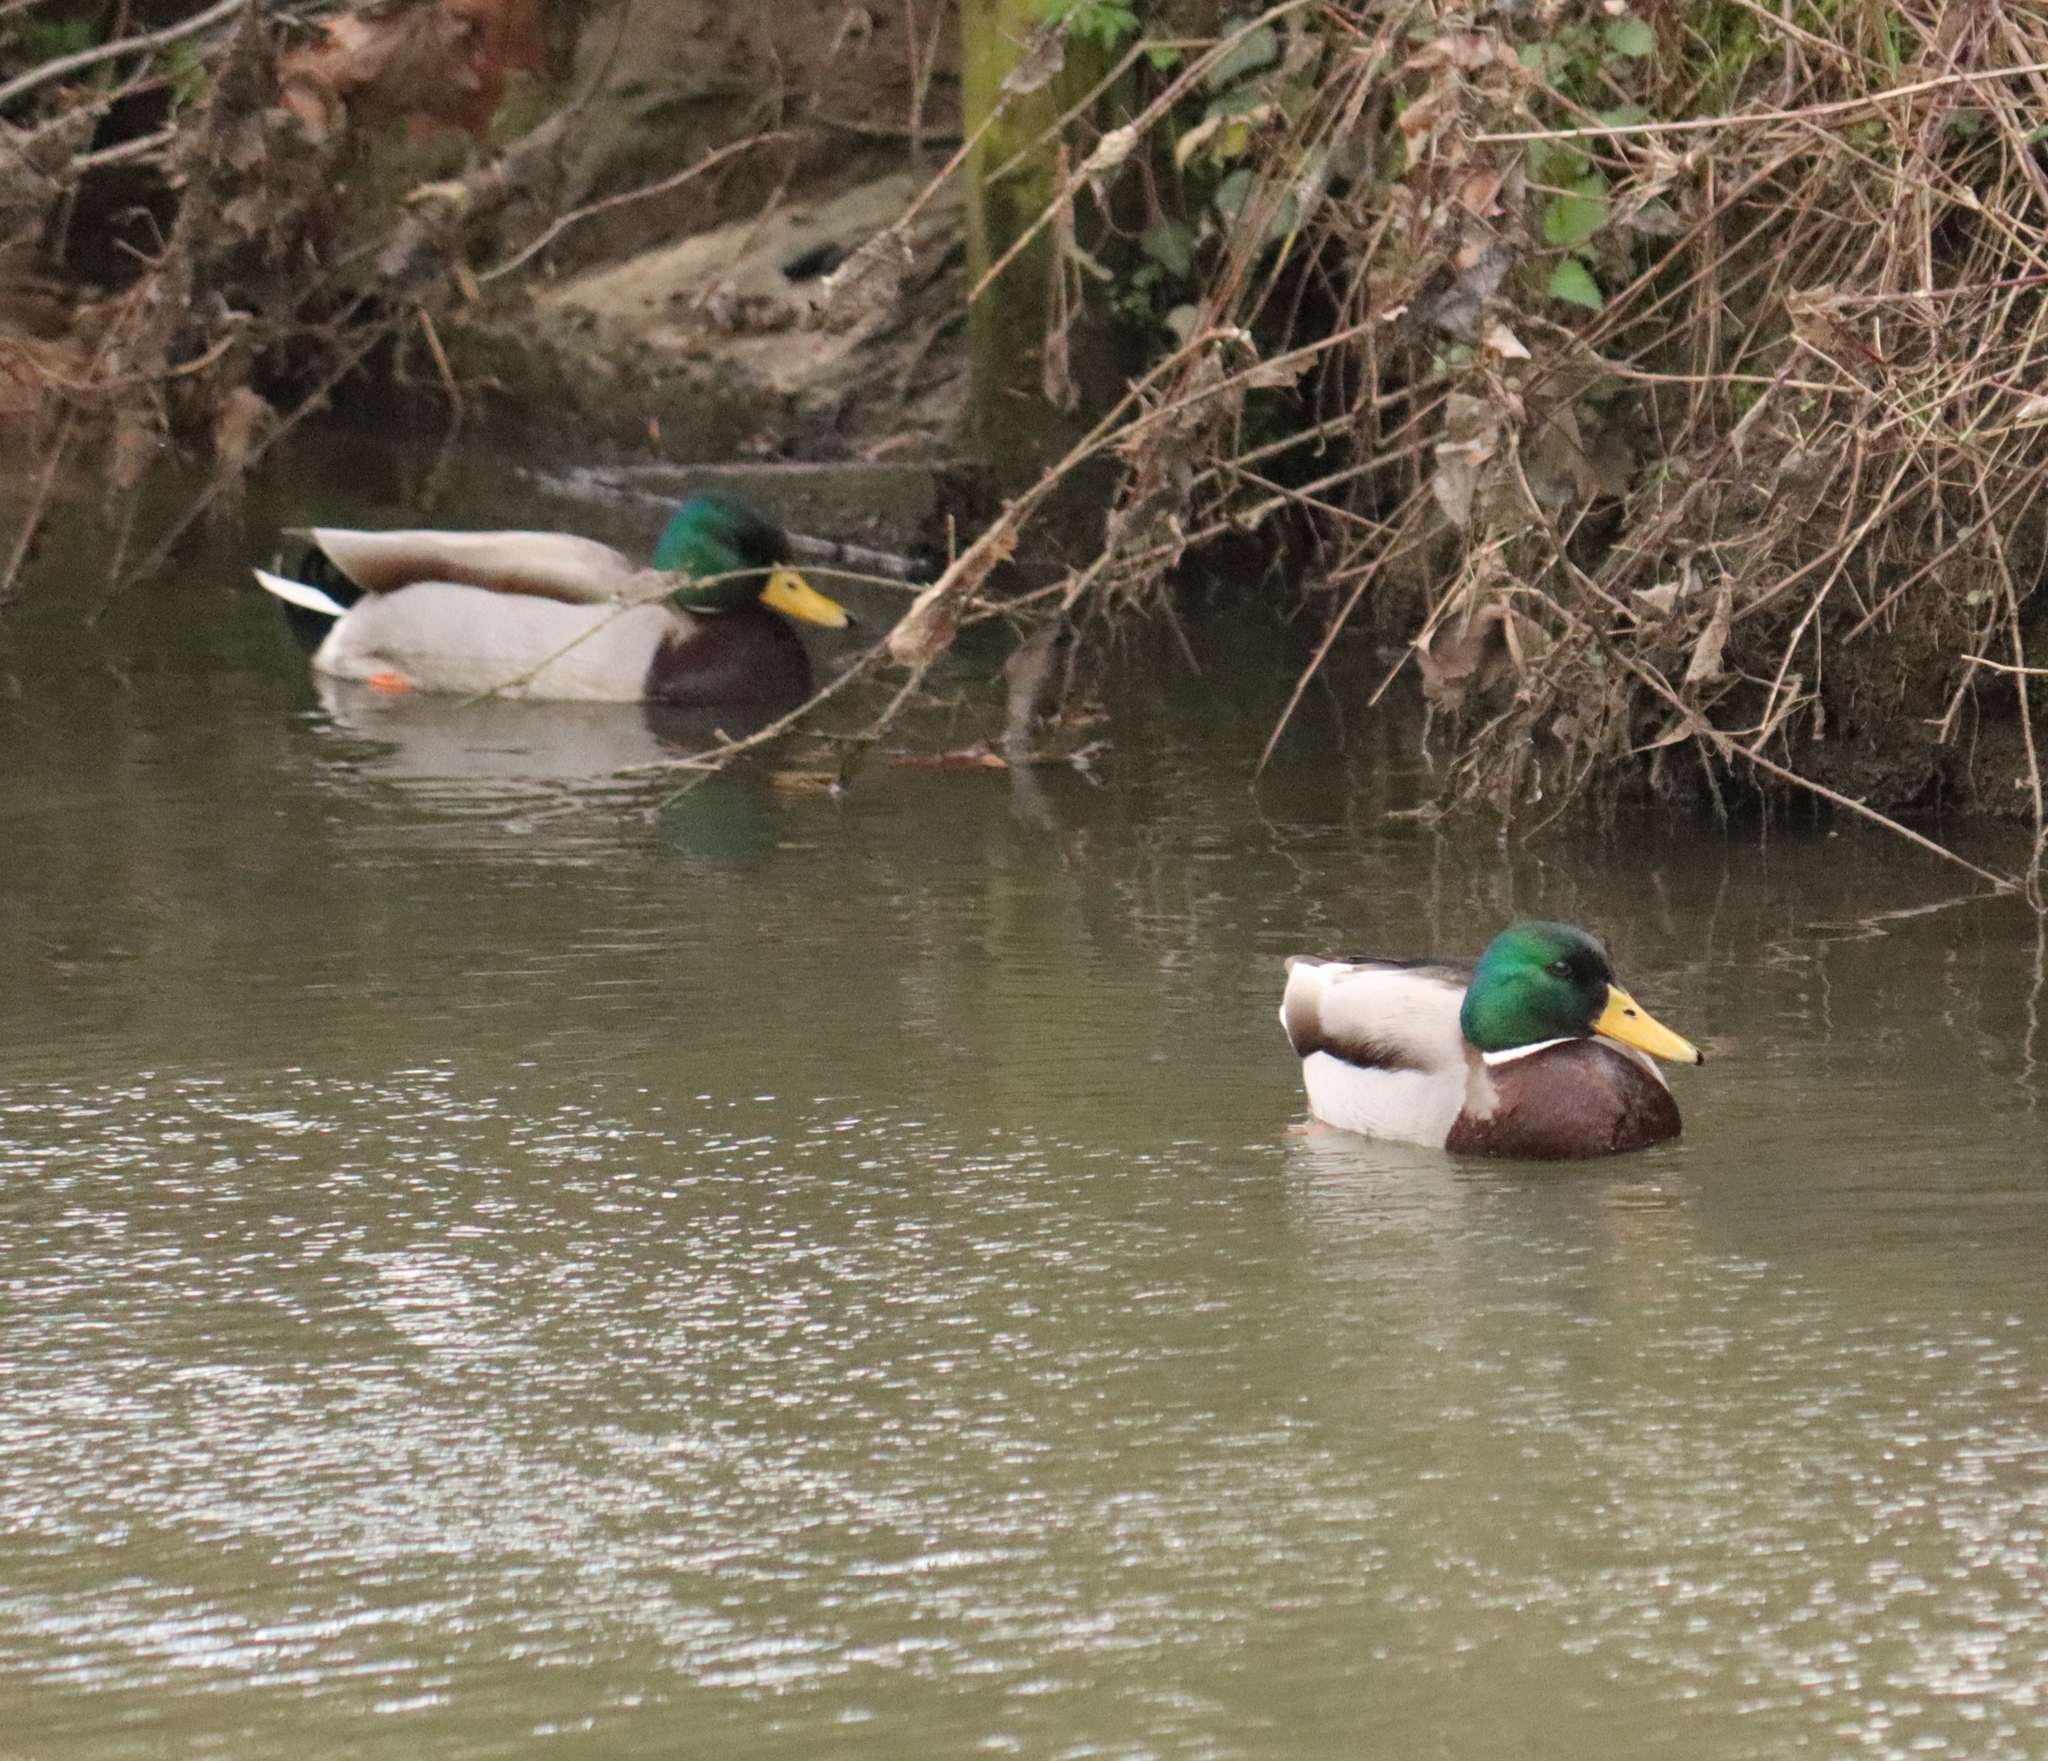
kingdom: Animalia
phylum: Chordata
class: Aves
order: Anseriformes
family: Anatidae
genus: Anas
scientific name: Anas platyrhynchos
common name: Mallard
